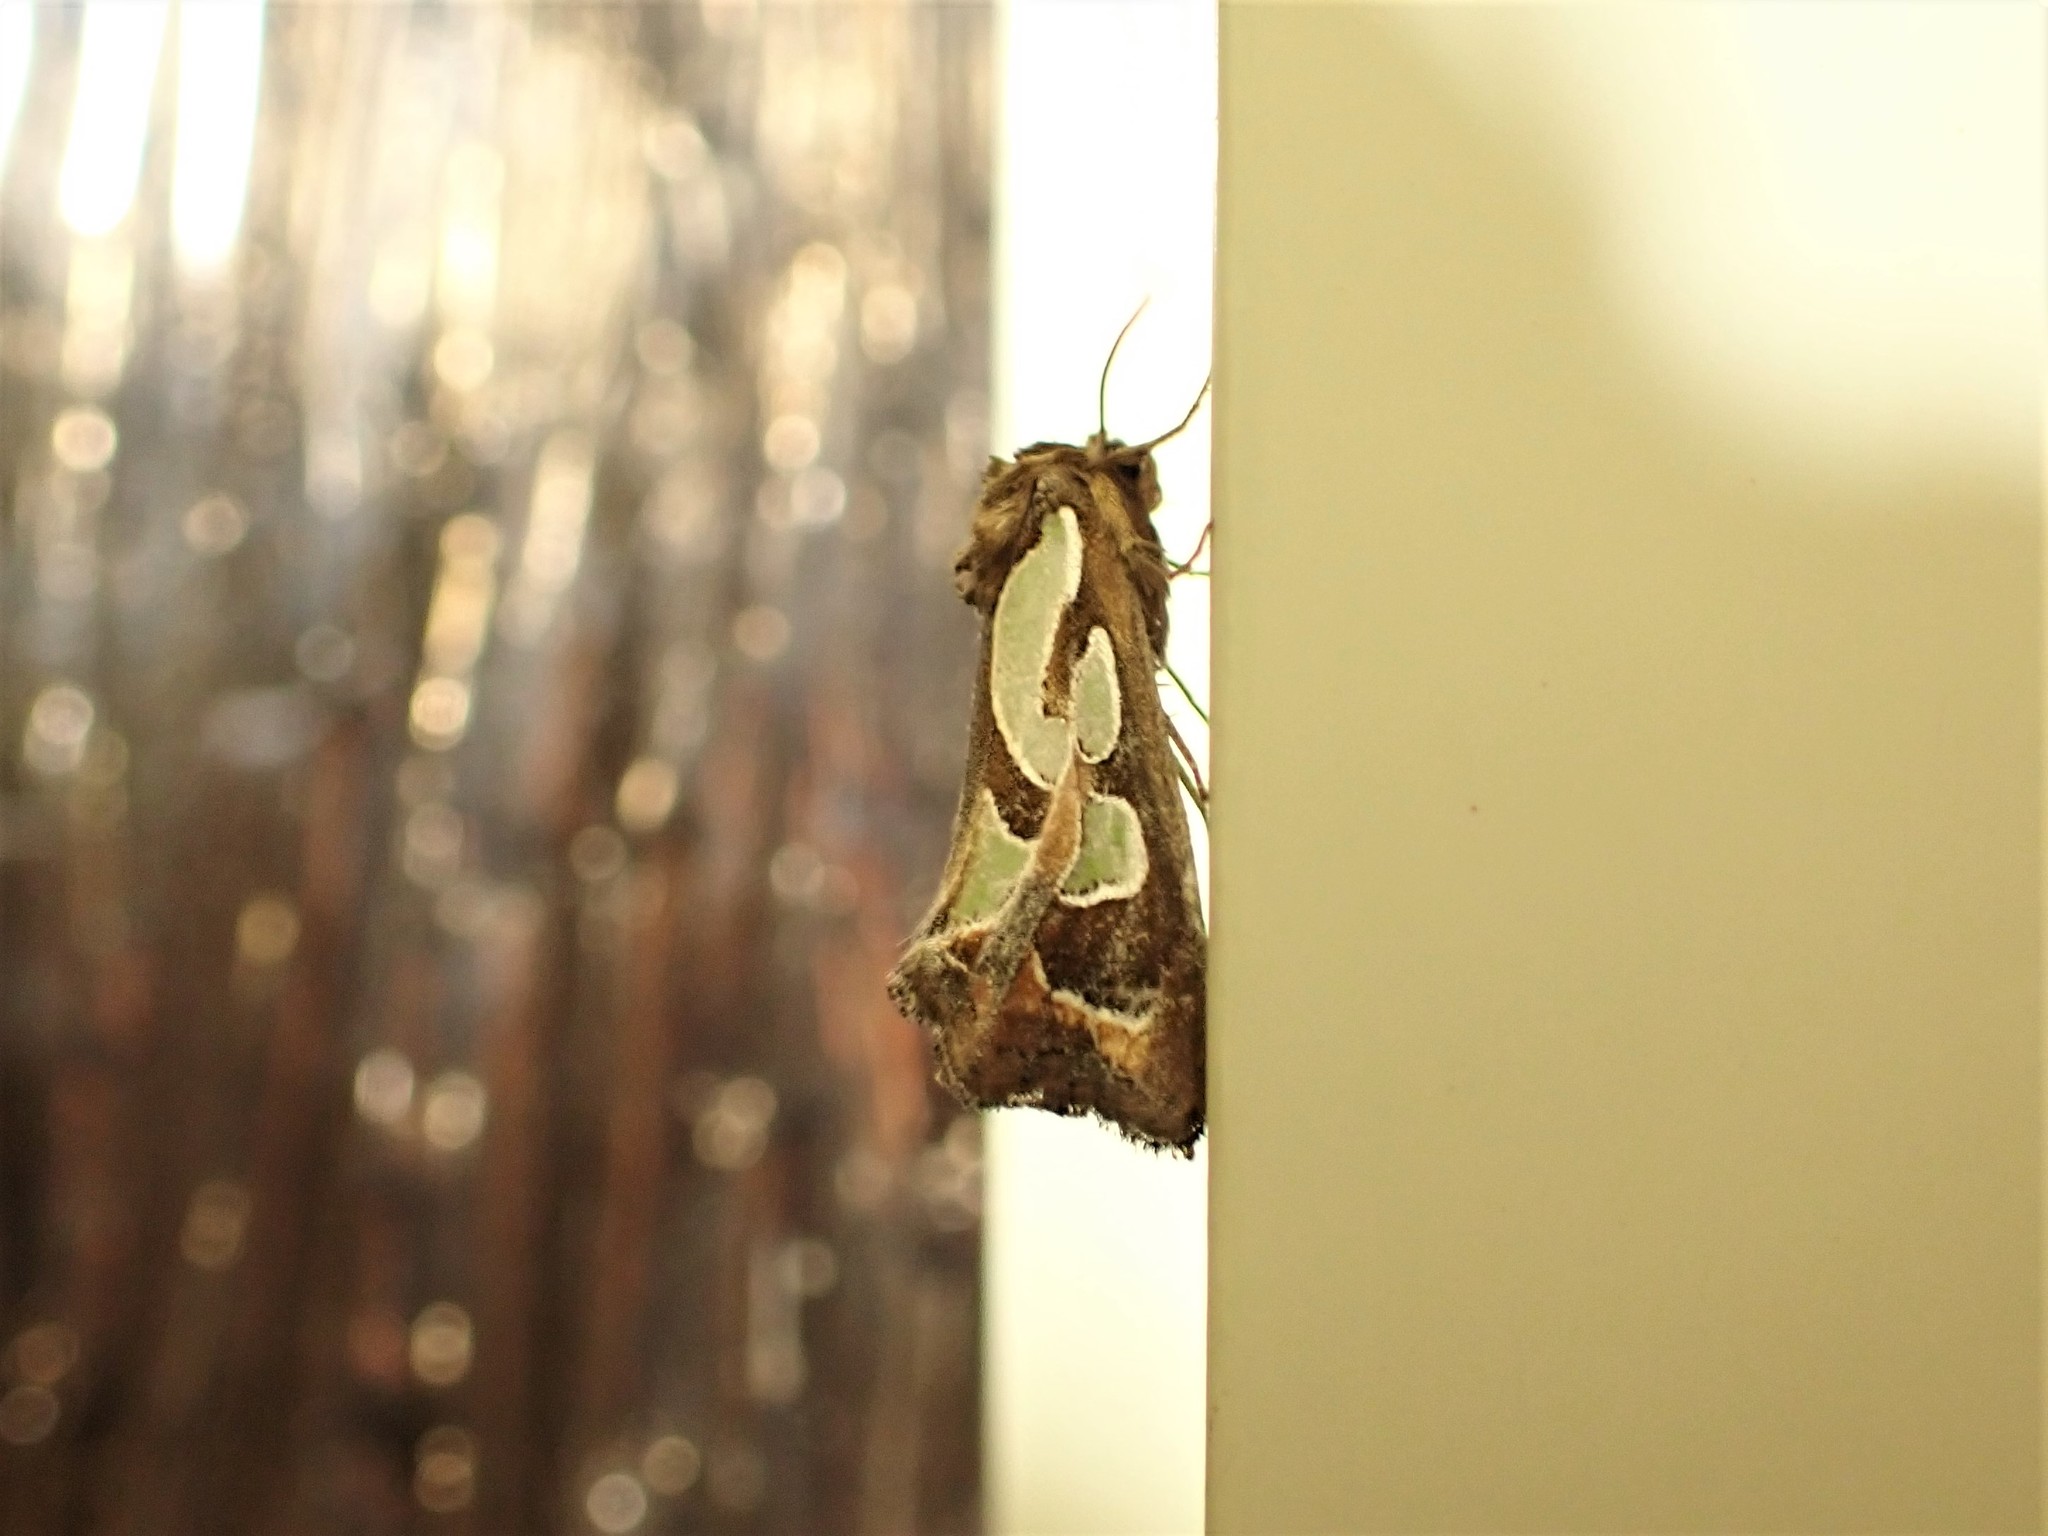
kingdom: Animalia
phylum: Arthropoda
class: Insecta
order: Lepidoptera
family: Noctuidae
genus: Cosmodes
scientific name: Cosmodes elegans
